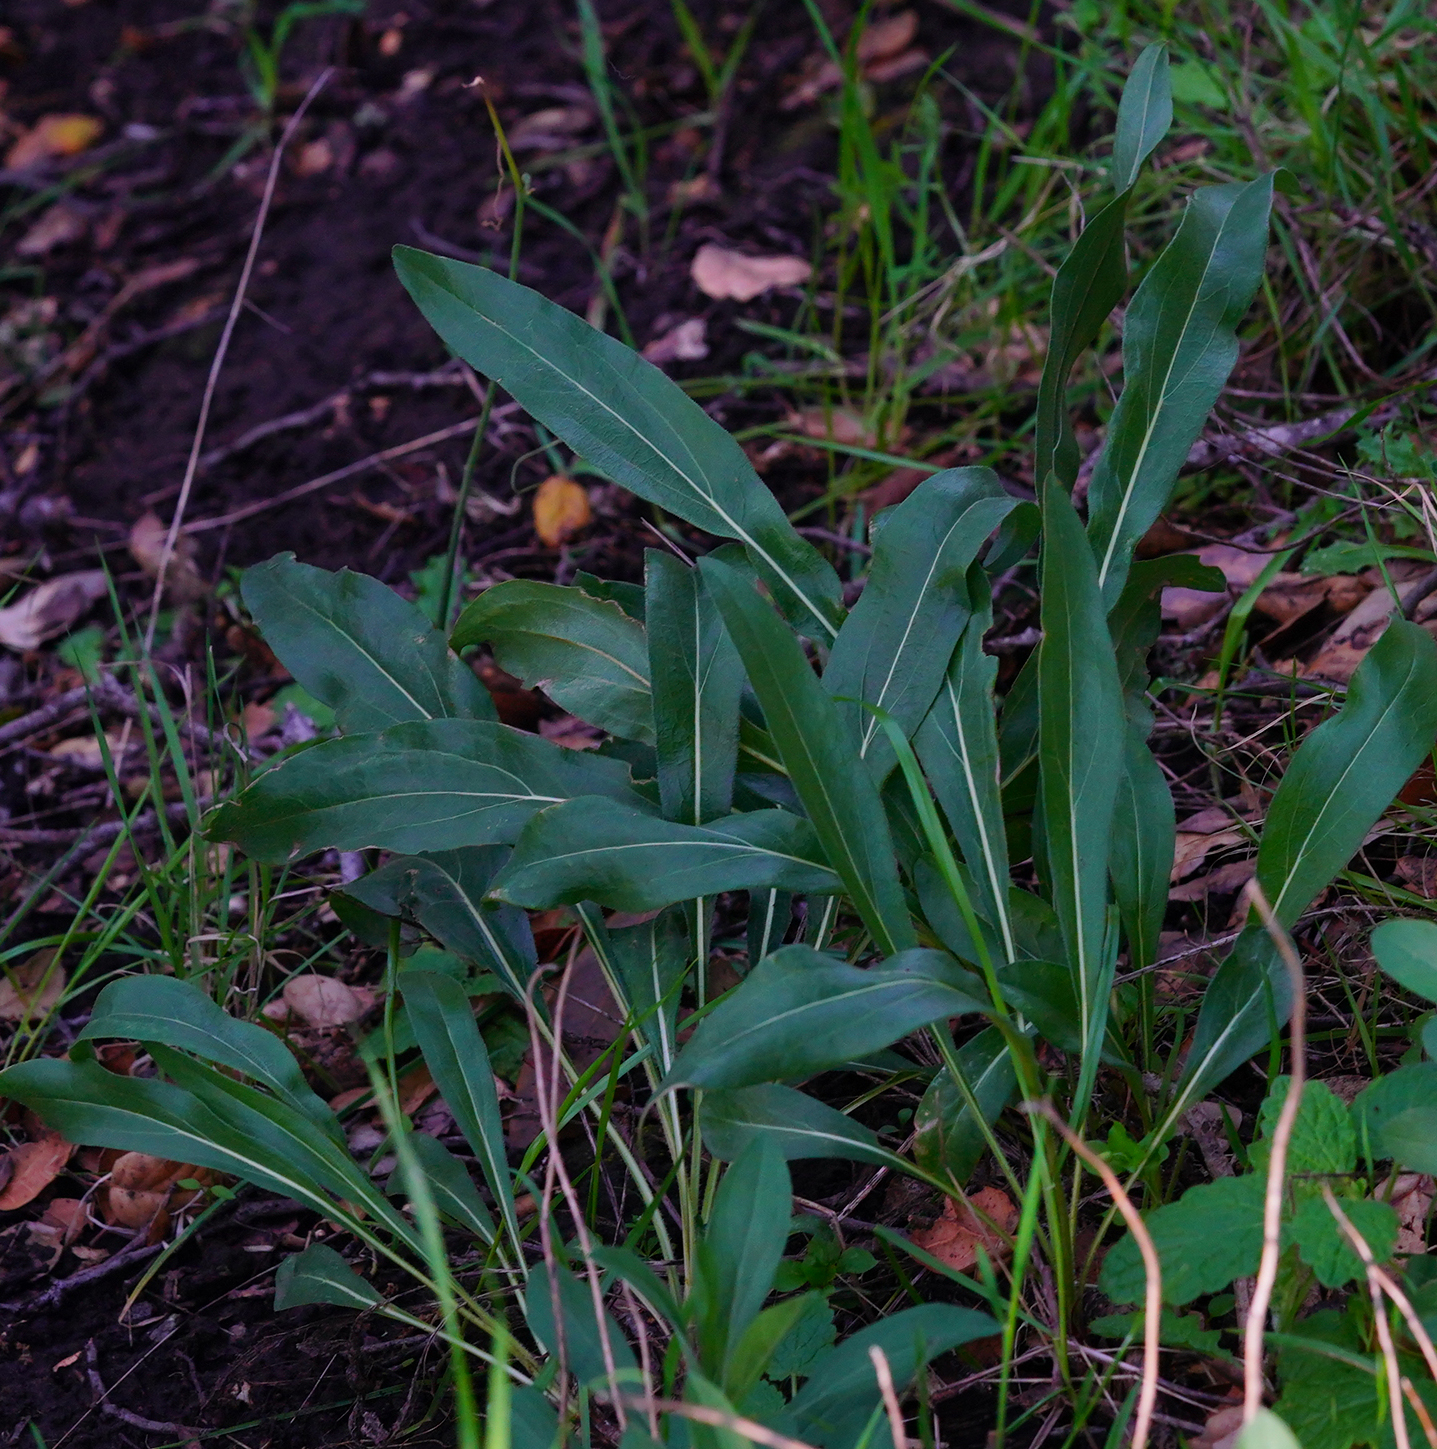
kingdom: Plantae
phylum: Tracheophyta
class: Magnoliopsida
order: Asterales
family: Asteraceae
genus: Helianthella
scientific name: Helianthella castanea
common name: Diablo helianthella
